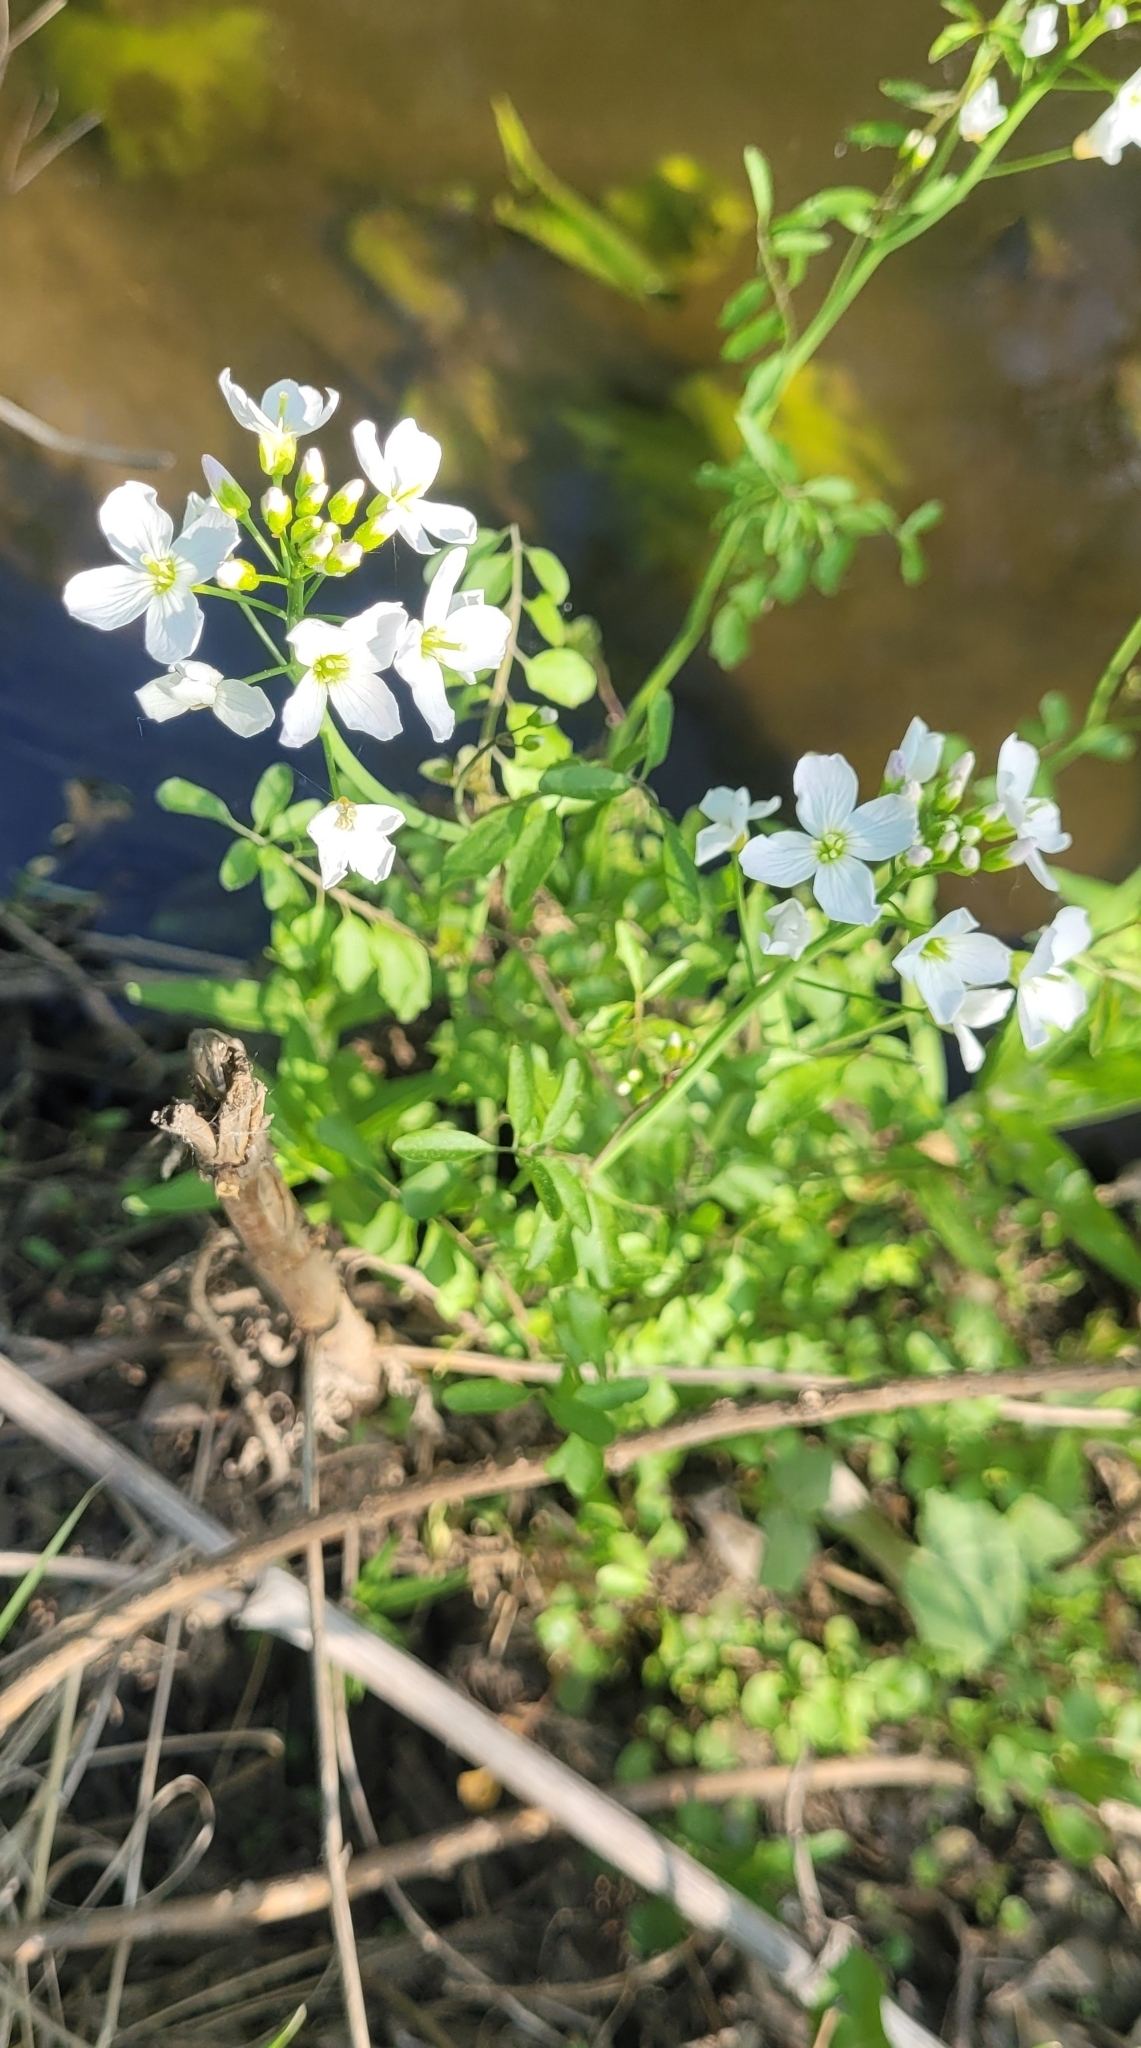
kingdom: Plantae
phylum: Tracheophyta
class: Magnoliopsida
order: Brassicales
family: Brassicaceae
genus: Cardamine
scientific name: Cardamine dentata
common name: Toothed bittercress
